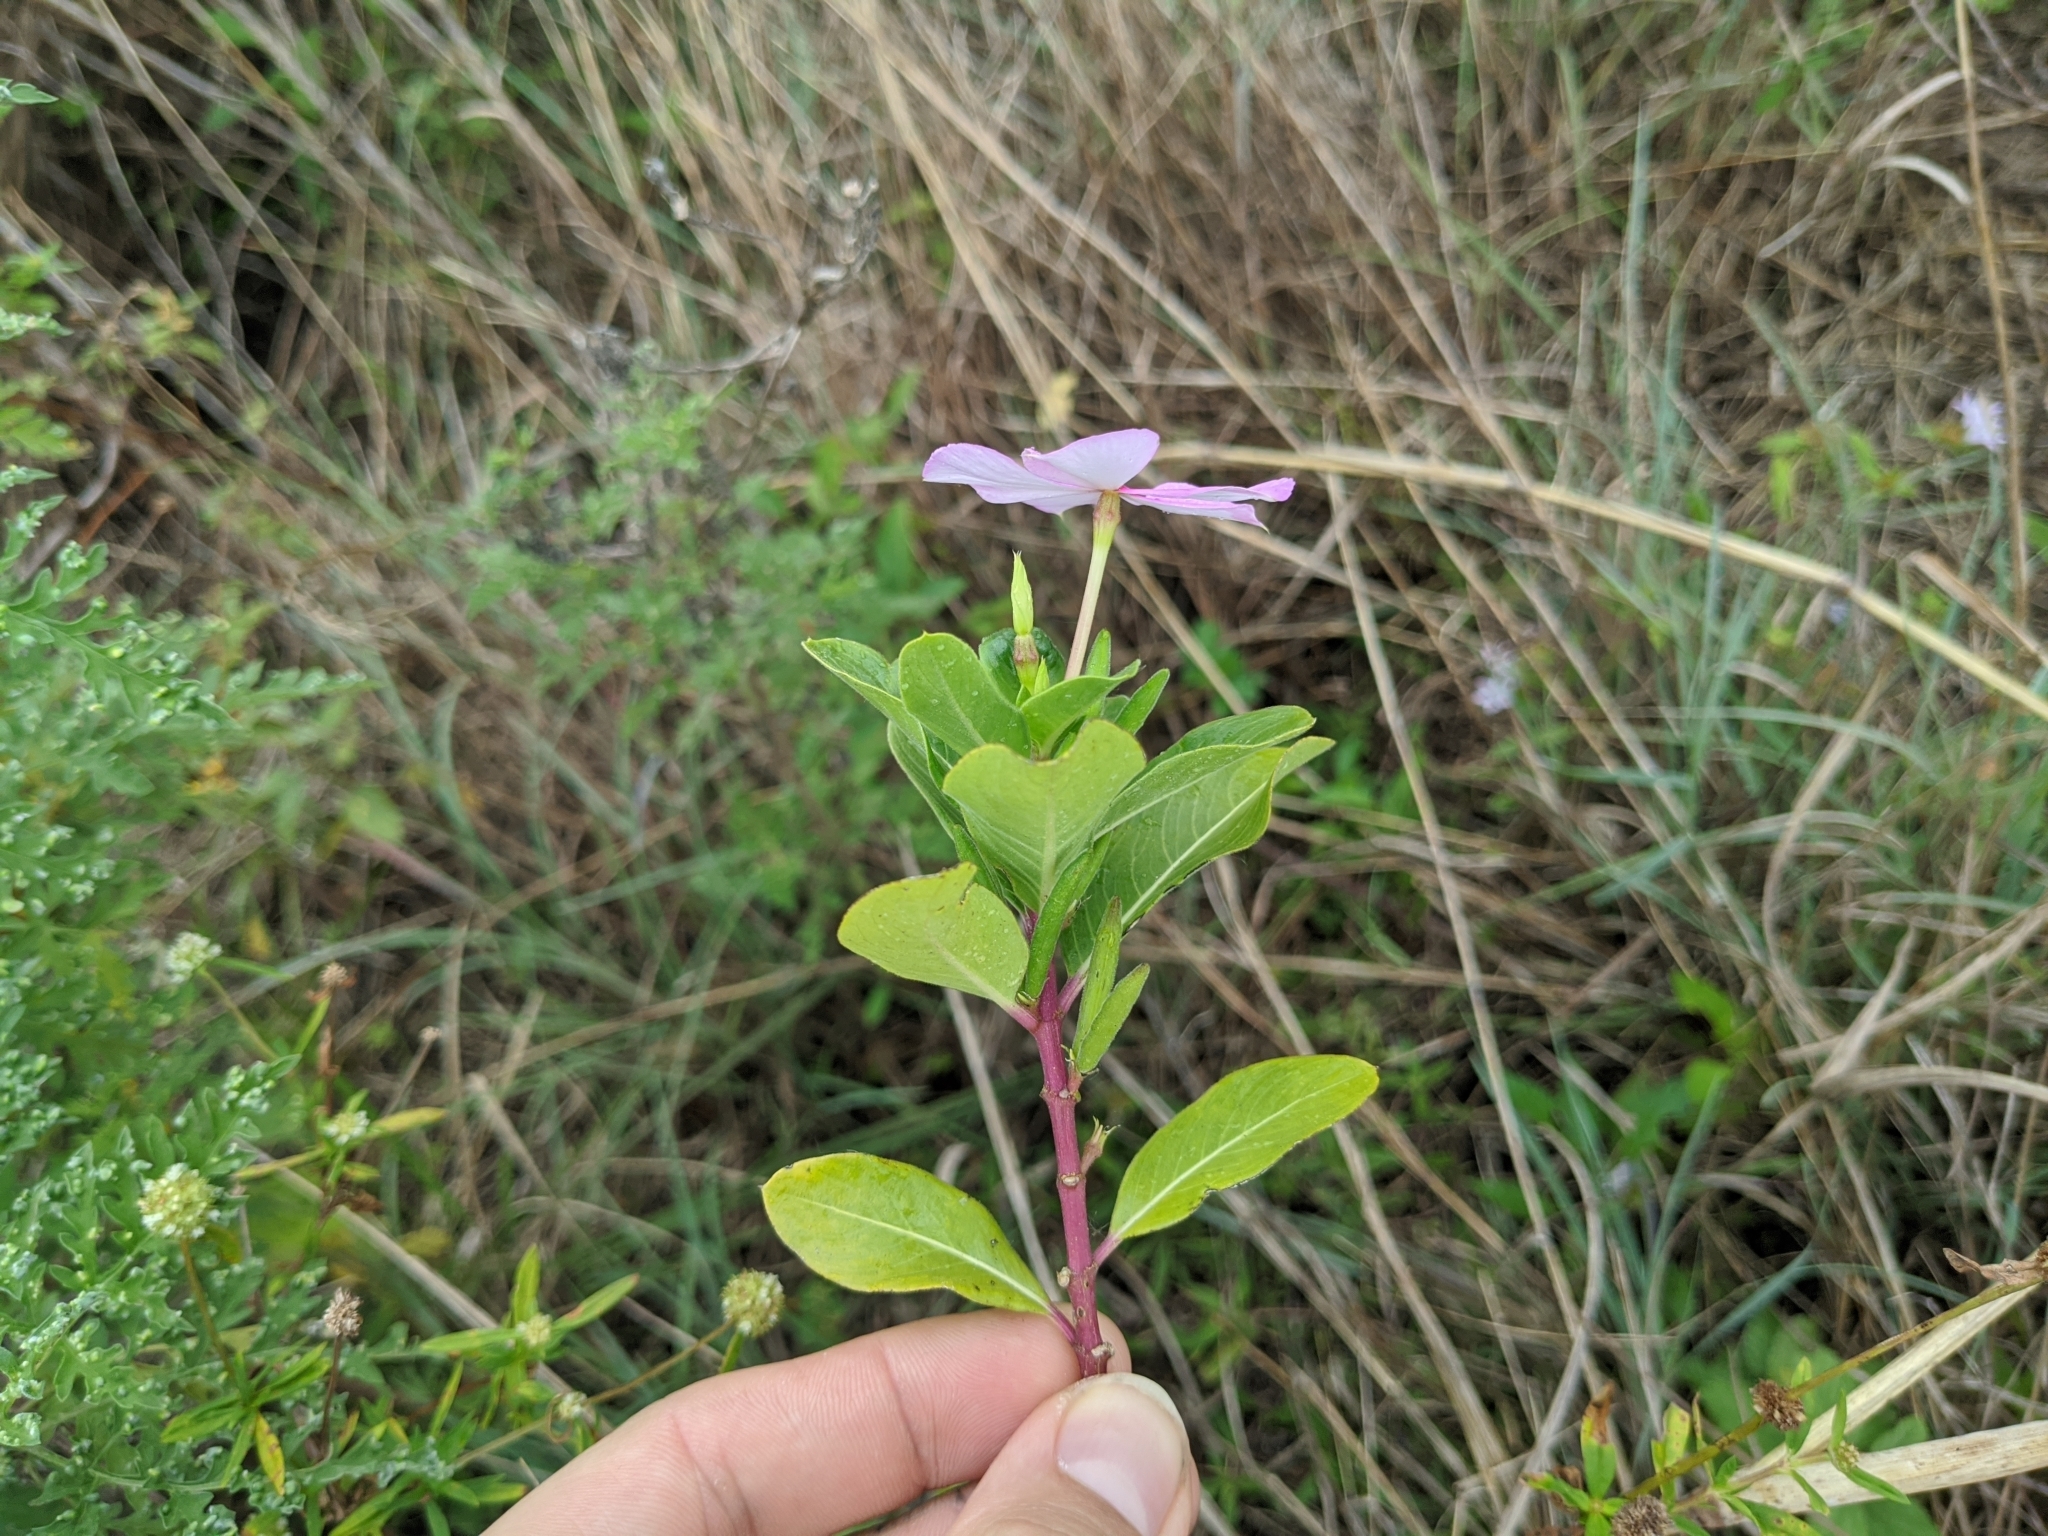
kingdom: Plantae
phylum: Tracheophyta
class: Magnoliopsida
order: Gentianales
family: Apocynaceae
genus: Catharanthus
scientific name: Catharanthus roseus
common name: Madagascar periwinkle
